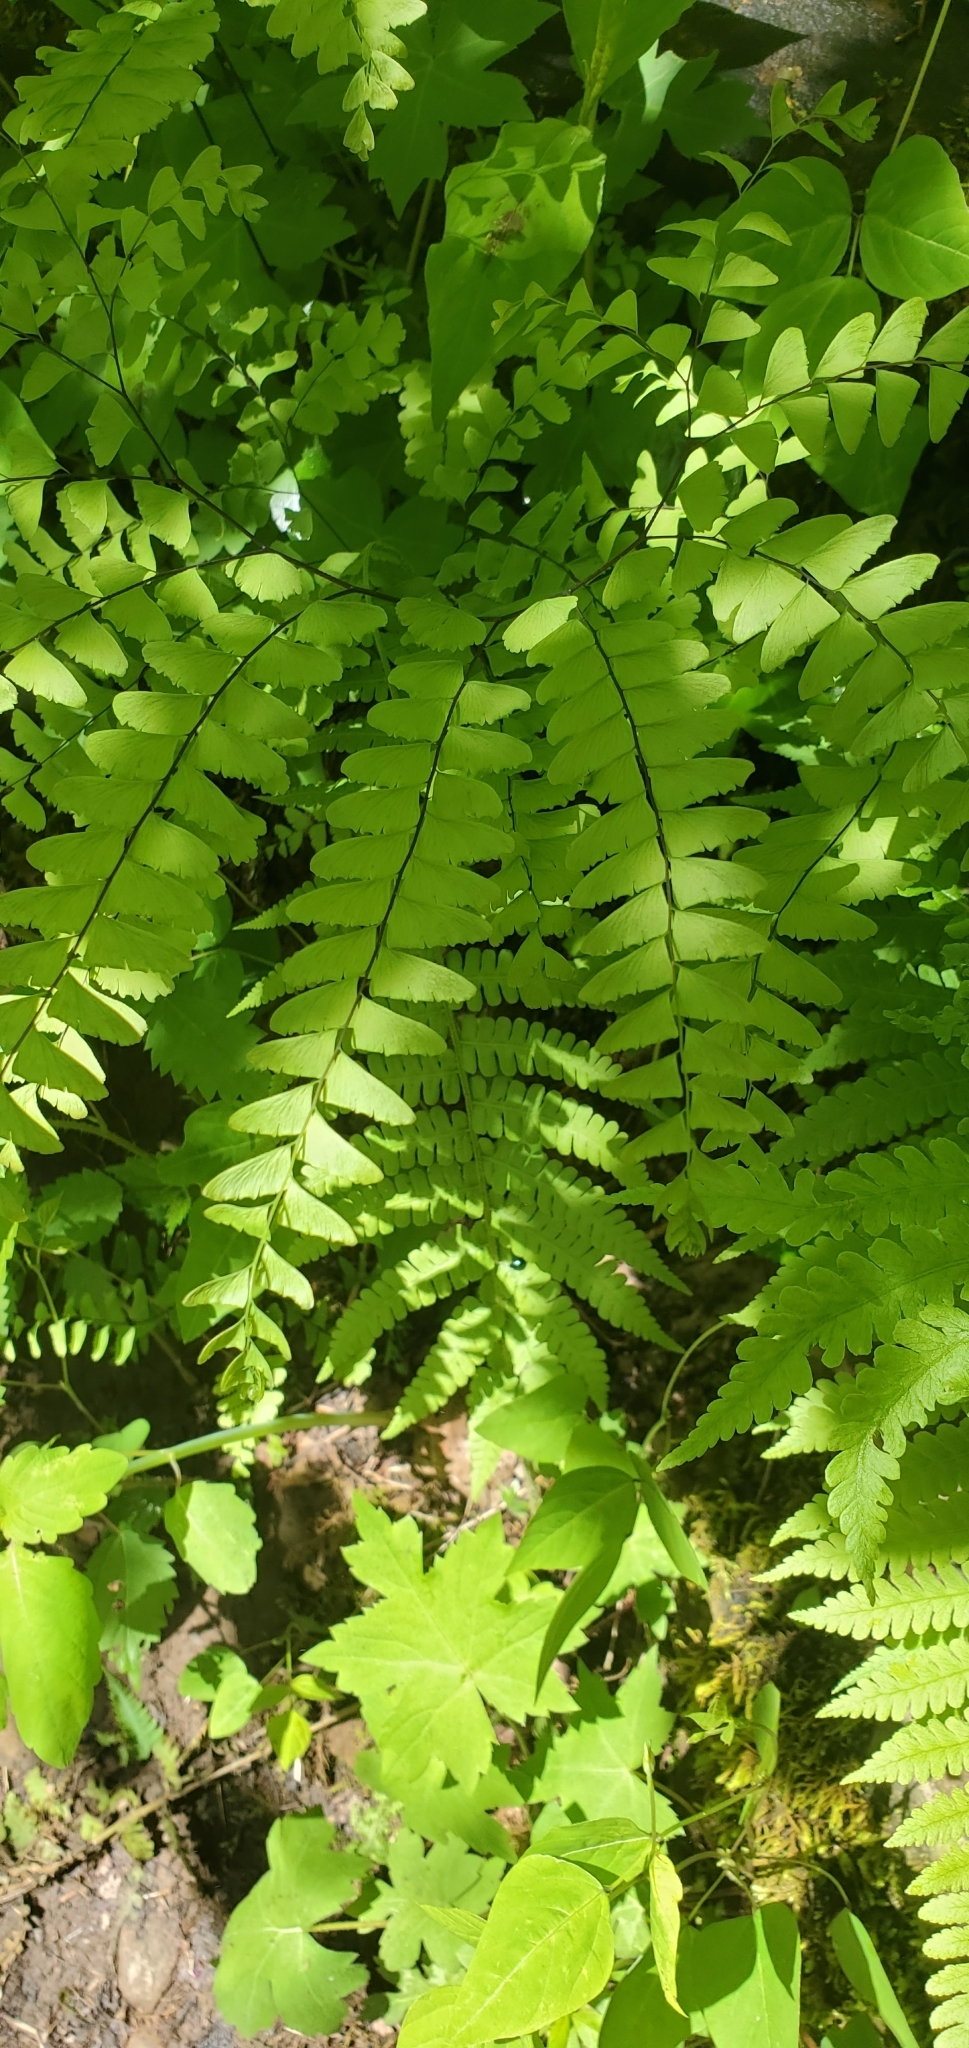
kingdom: Plantae
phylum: Tracheophyta
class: Polypodiopsida
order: Polypodiales
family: Pteridaceae
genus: Adiantum
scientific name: Adiantum pedatum
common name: Five-finger fern
